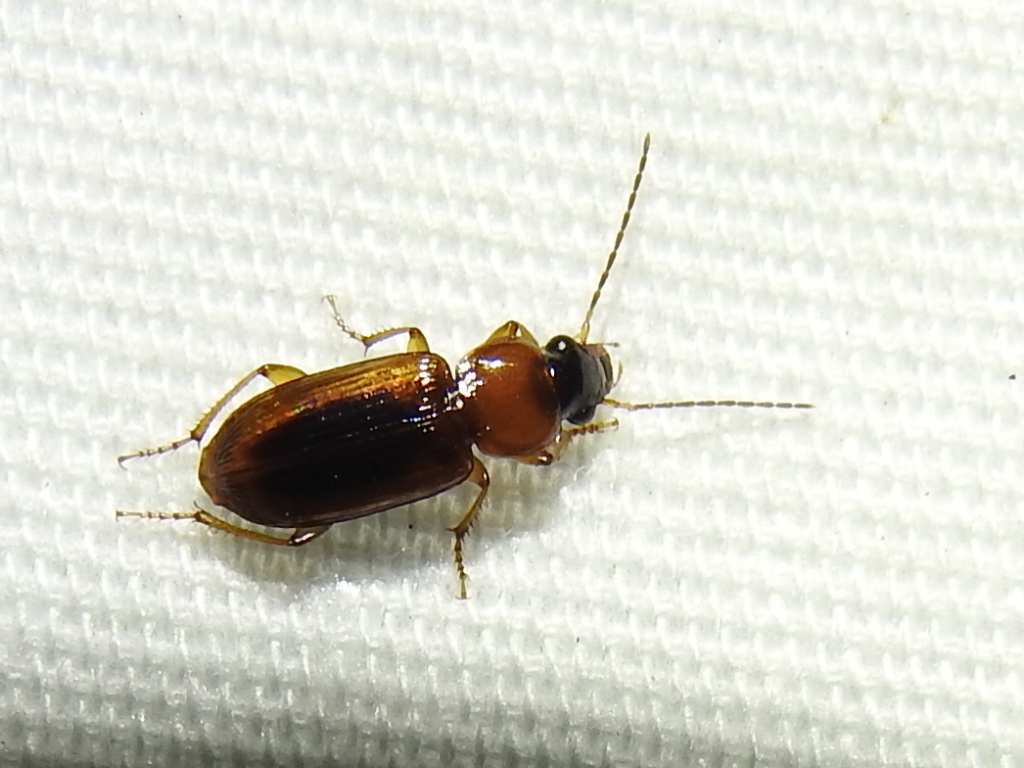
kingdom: Animalia
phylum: Arthropoda
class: Insecta
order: Coleoptera
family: Carabidae
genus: Stenolophus
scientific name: Stenolophus dissimilis
